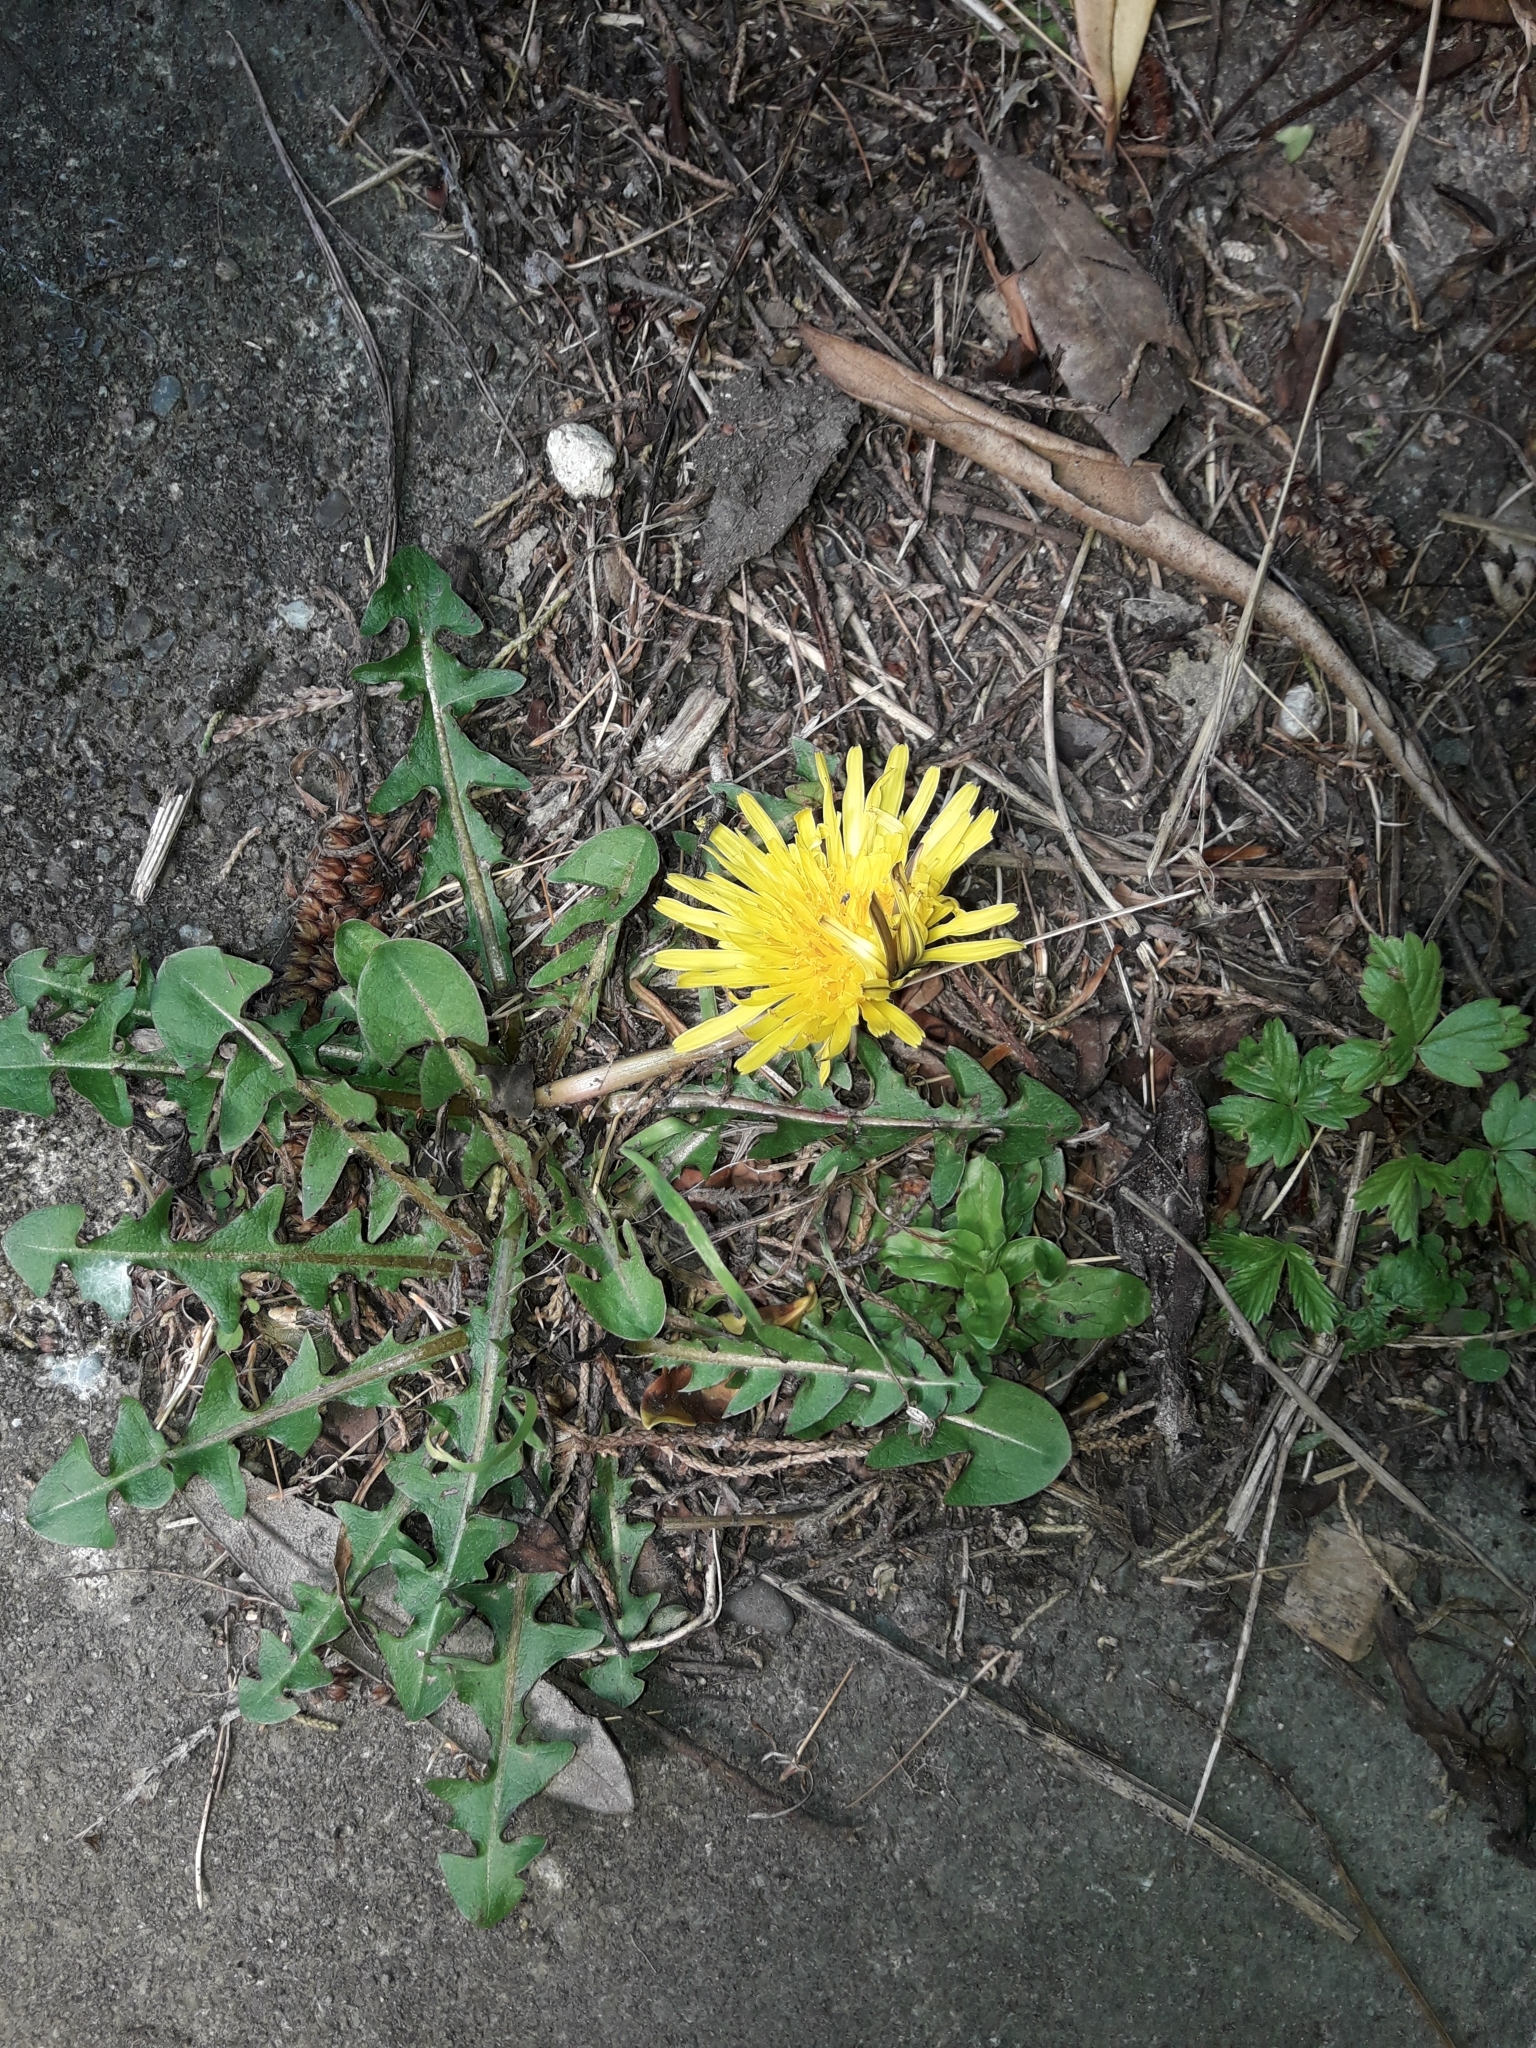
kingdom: Plantae
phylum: Tracheophyta
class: Magnoliopsida
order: Asterales
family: Asteraceae
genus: Taraxacum
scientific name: Taraxacum officinale
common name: Common dandelion
